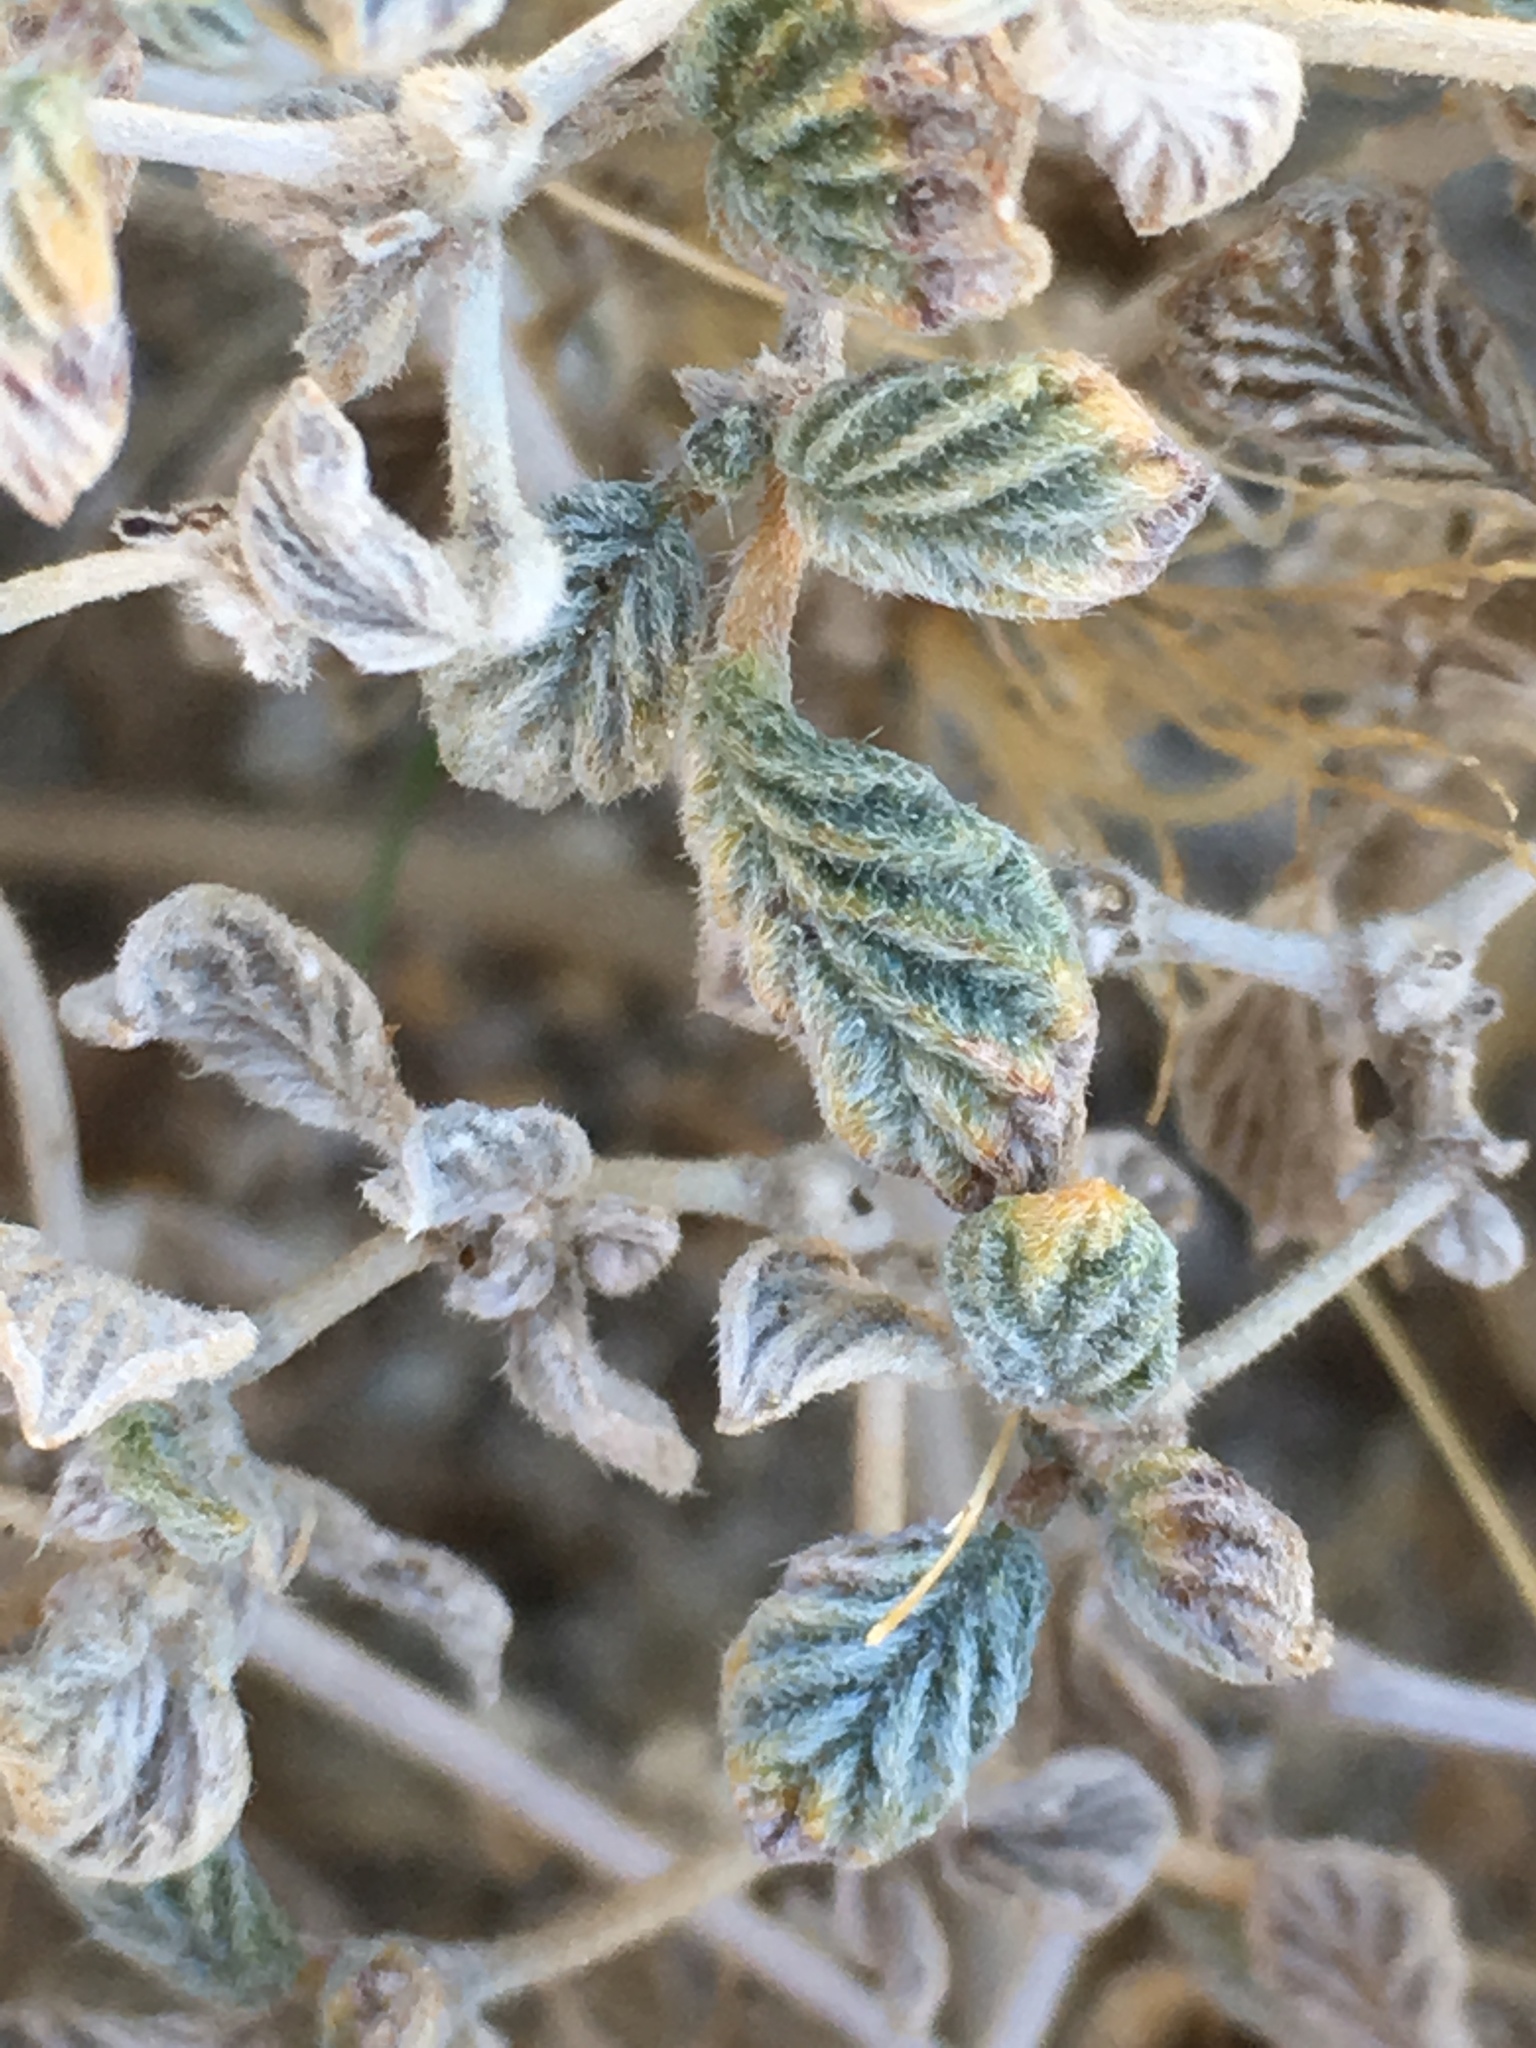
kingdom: Plantae
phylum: Tracheophyta
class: Magnoliopsida
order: Boraginales
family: Ehretiaceae
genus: Tiquilia
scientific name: Tiquilia plicata
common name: Fan-leaf tiquilia
